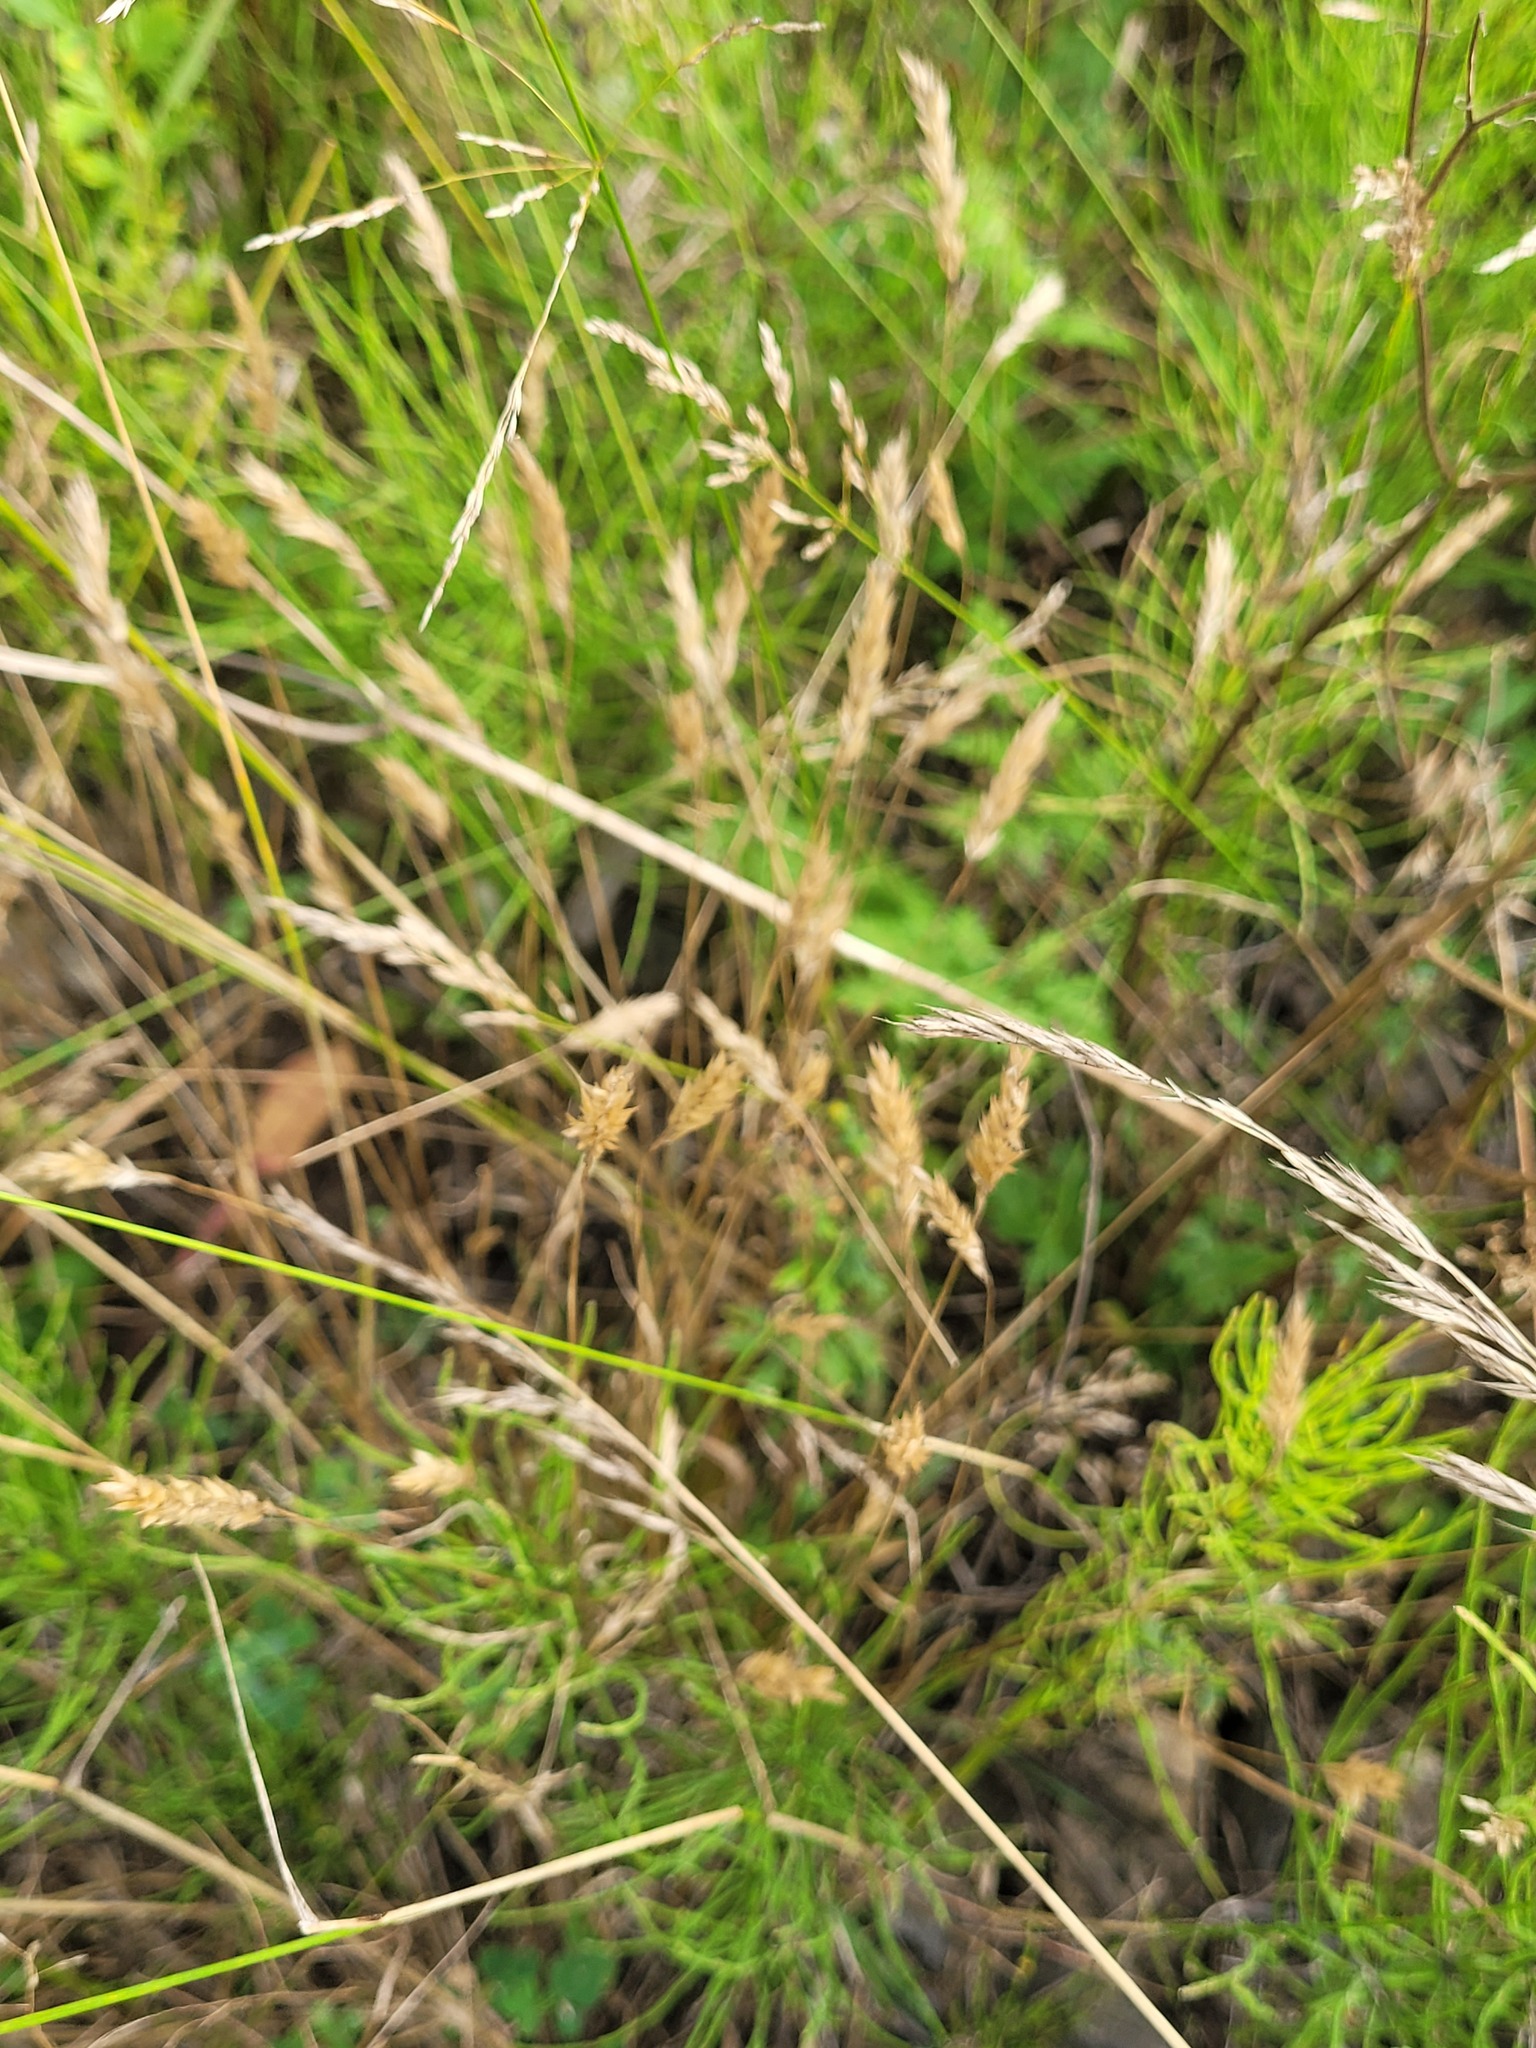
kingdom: Plantae
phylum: Tracheophyta
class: Liliopsida
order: Poales
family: Poaceae
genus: Anthoxanthum
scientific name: Anthoxanthum odoratum
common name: Sweet vernalgrass
